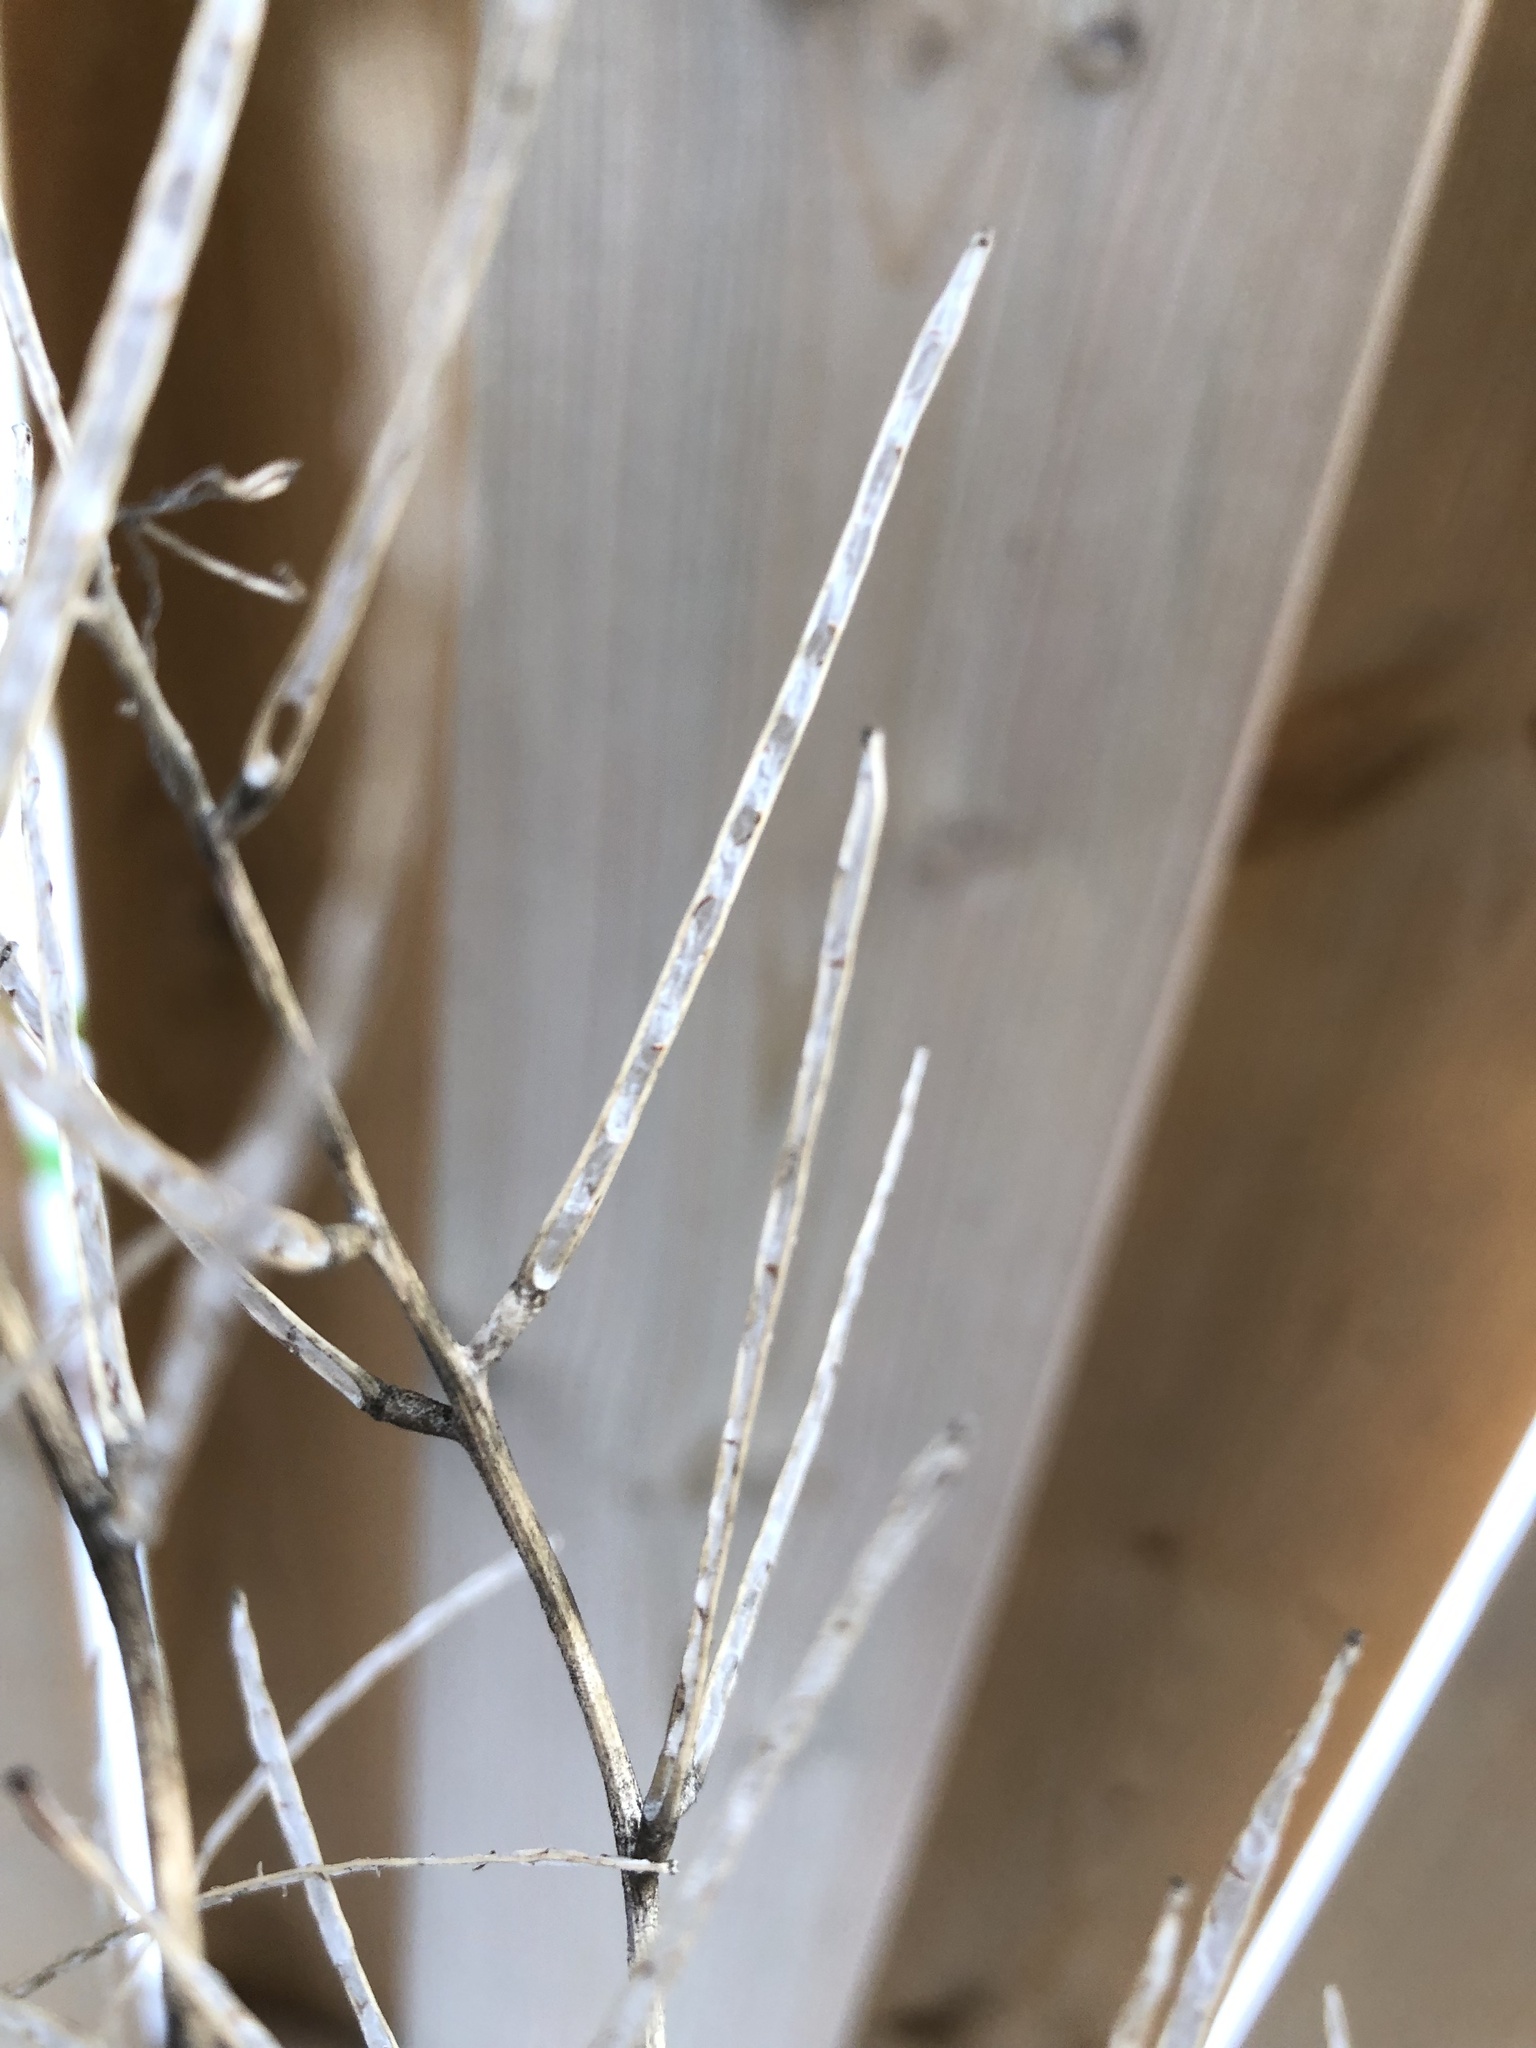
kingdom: Plantae
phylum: Tracheophyta
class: Magnoliopsida
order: Brassicales
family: Brassicaceae
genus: Alliaria
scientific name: Alliaria petiolata
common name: Garlic mustard
